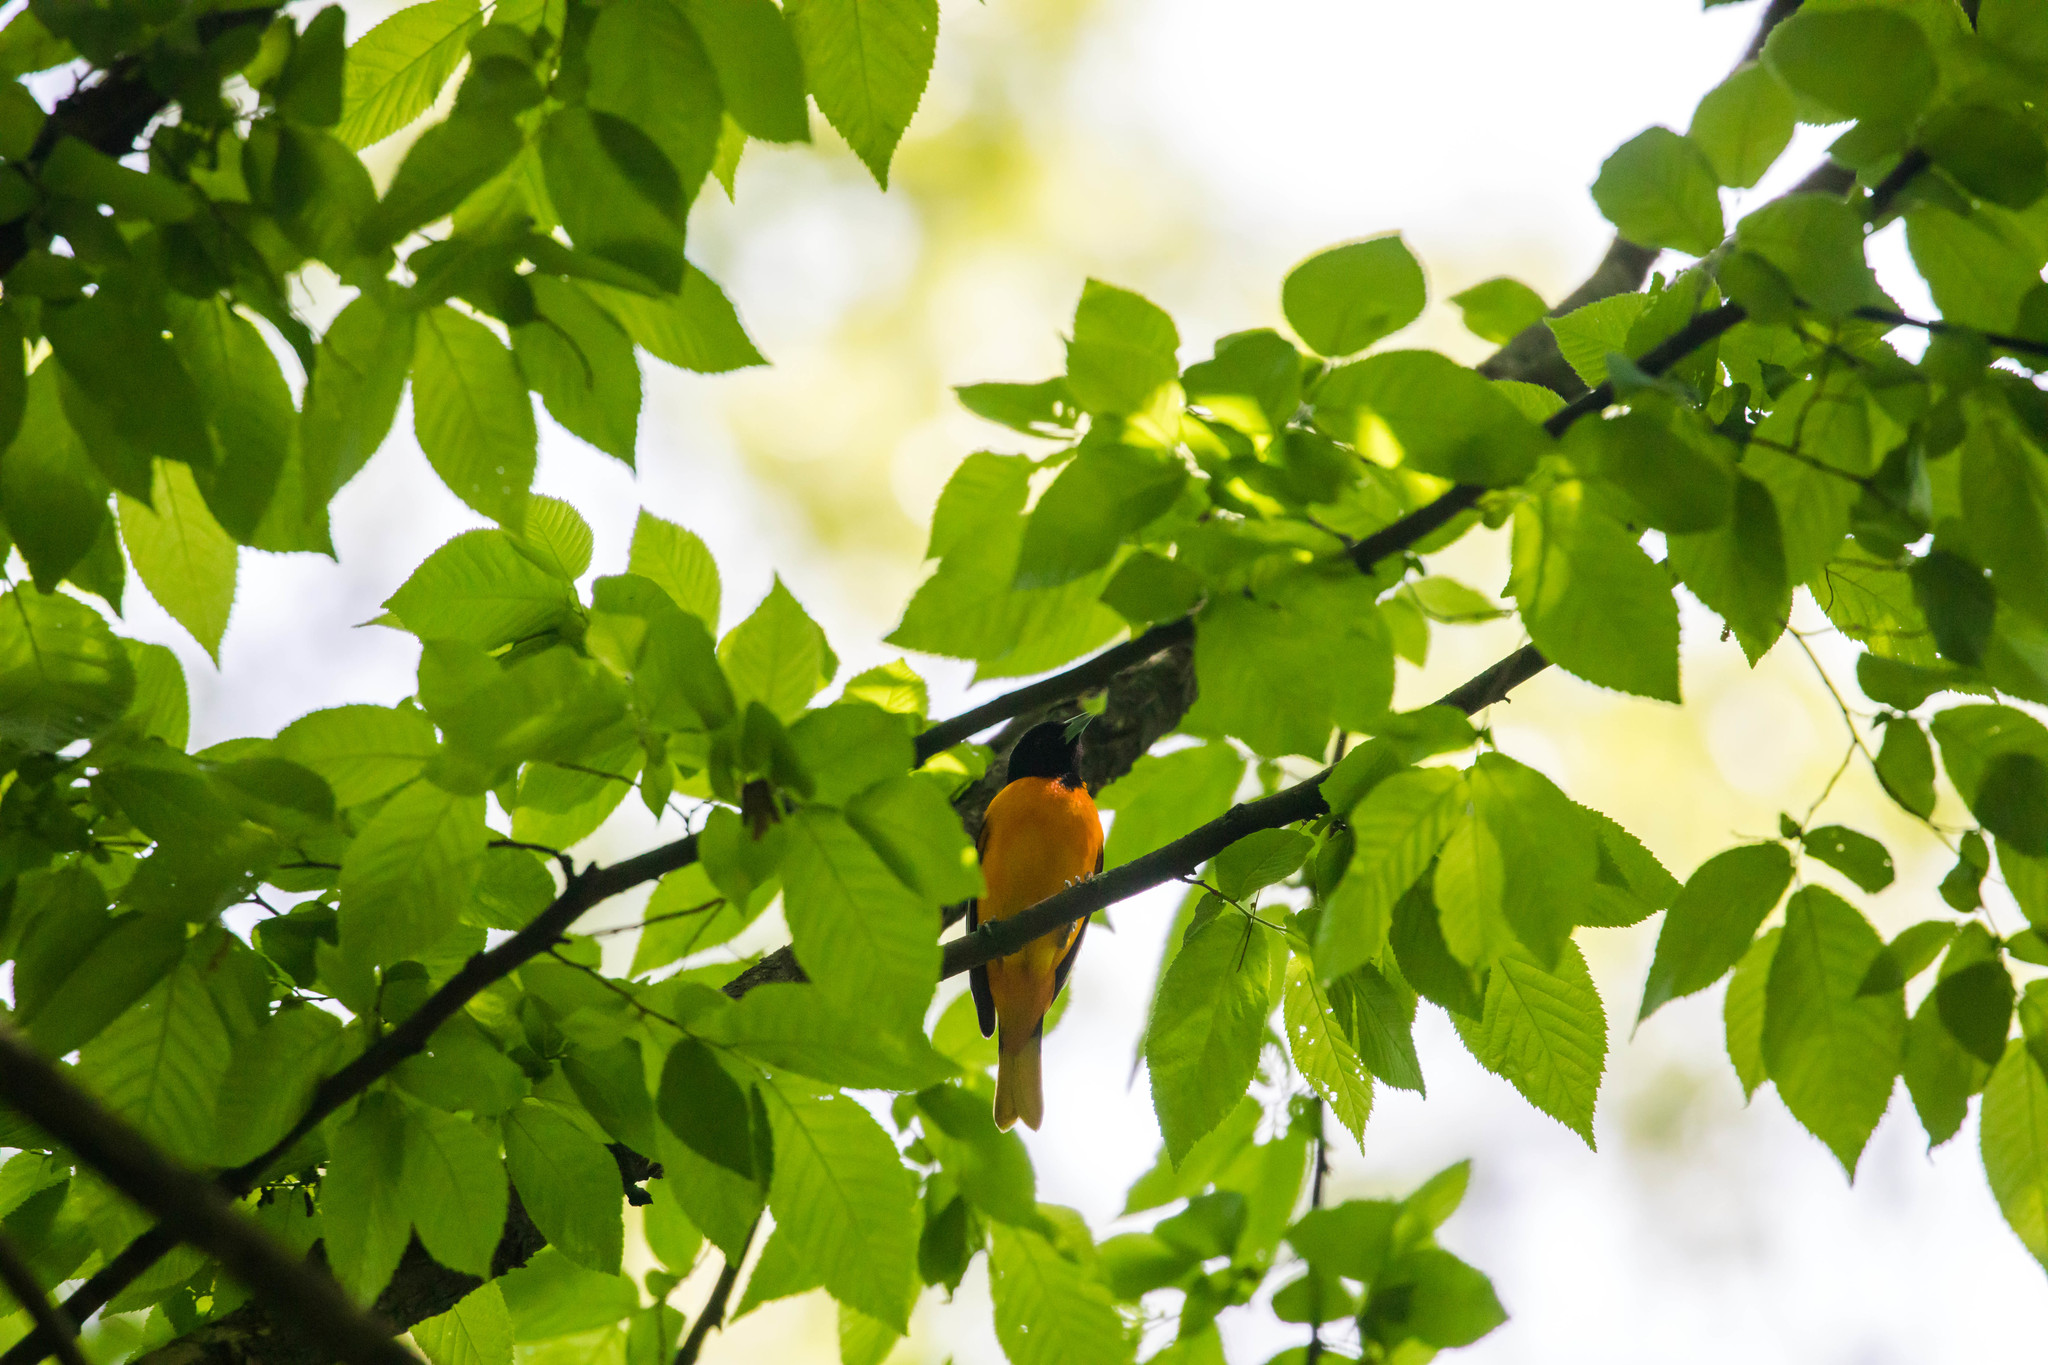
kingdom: Animalia
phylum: Chordata
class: Aves
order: Passeriformes
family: Icteridae
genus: Icterus
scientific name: Icterus galbula
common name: Baltimore oriole
